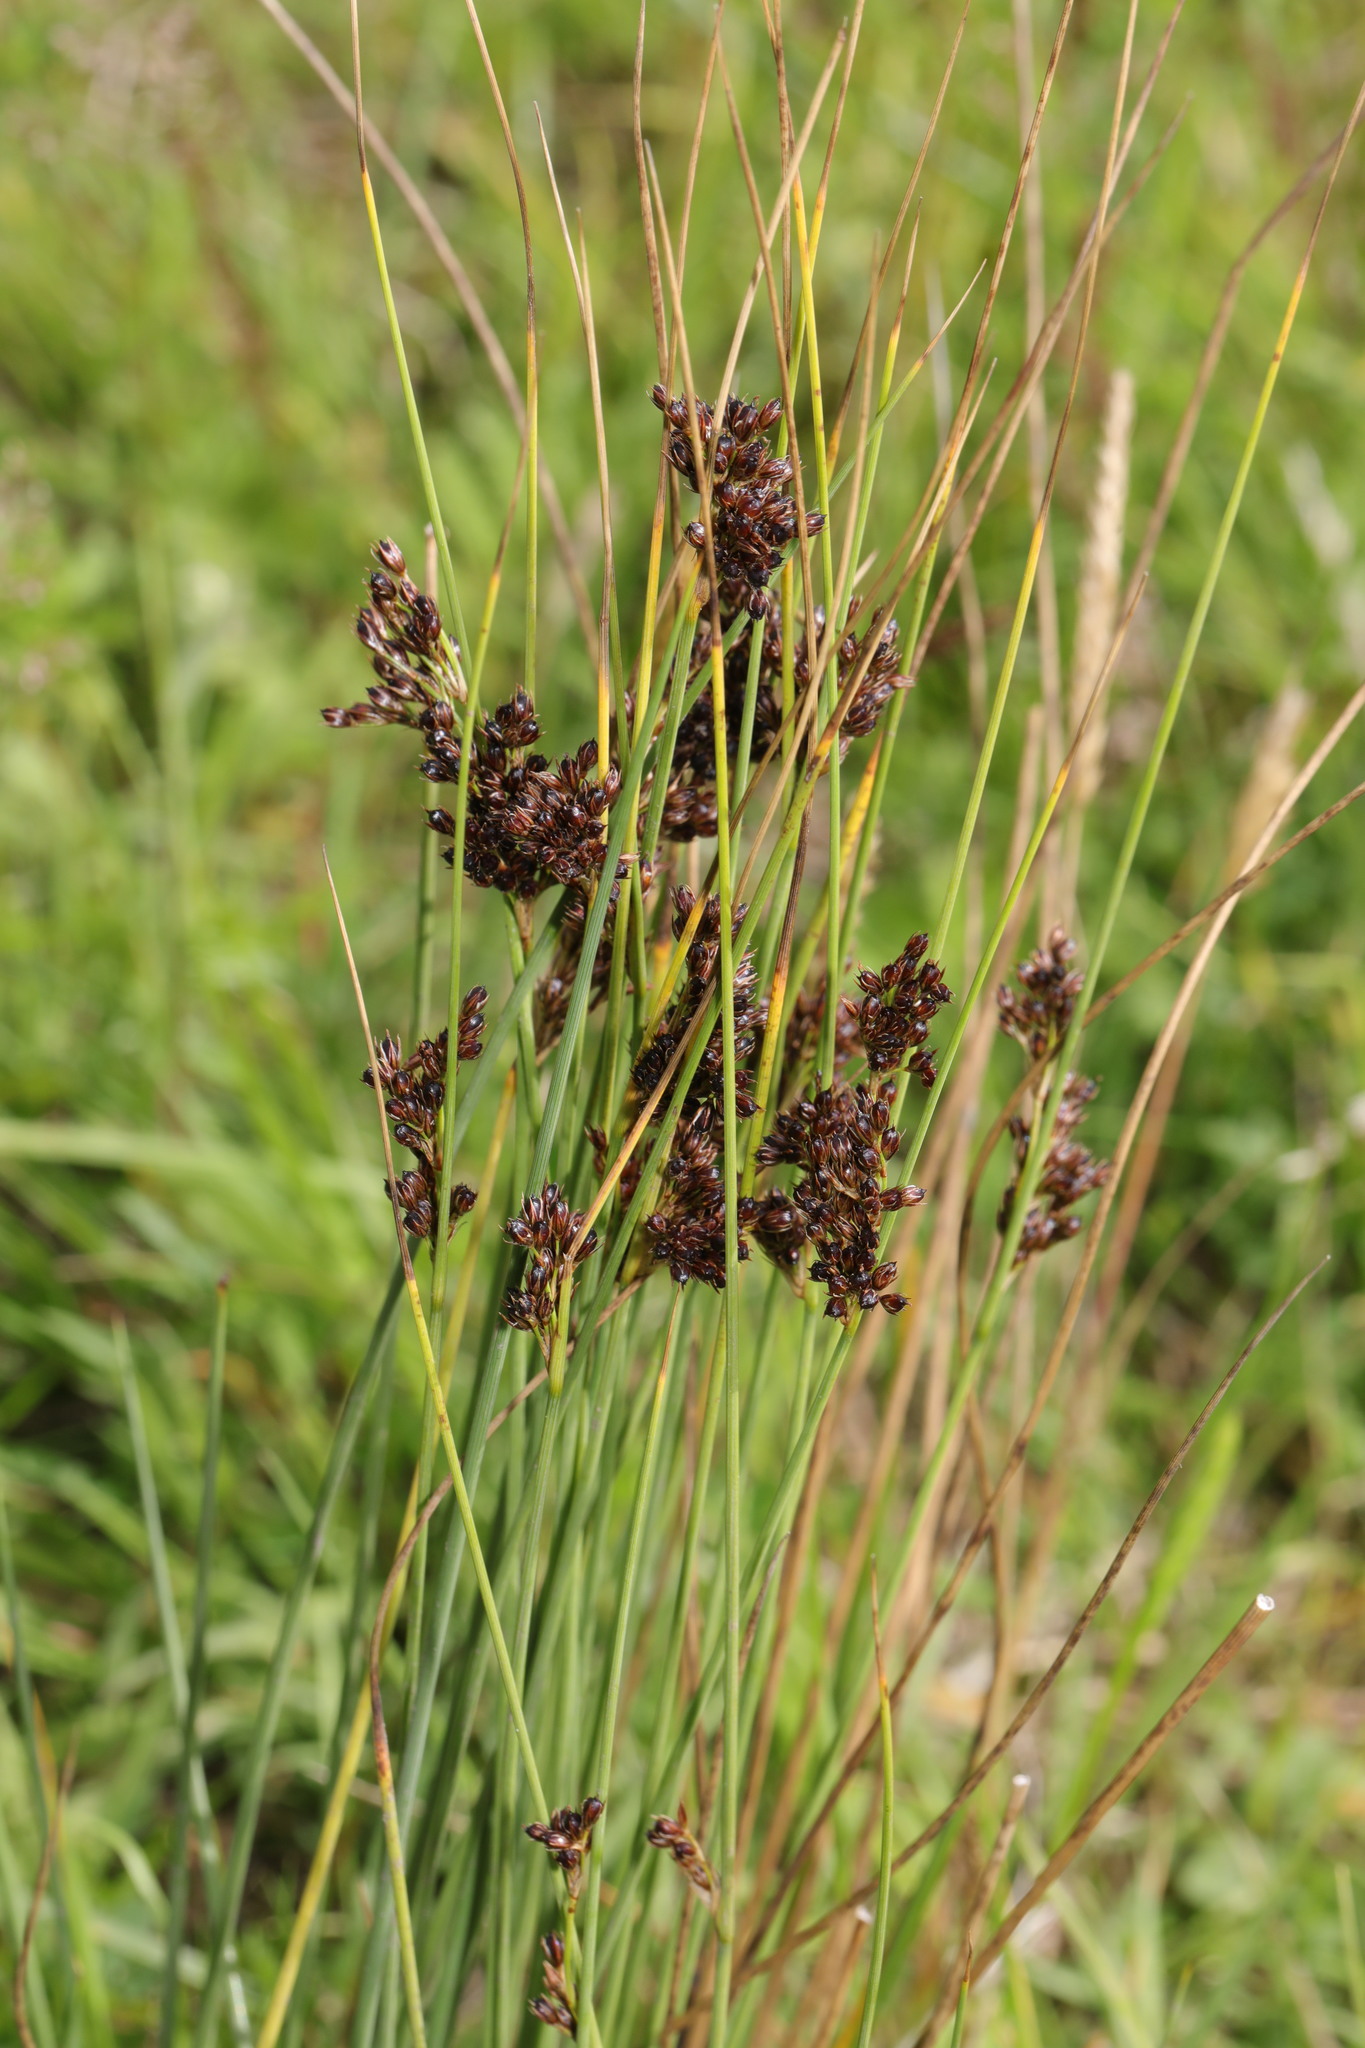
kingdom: Plantae
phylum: Tracheophyta
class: Liliopsida
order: Poales
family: Juncaceae
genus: Juncus
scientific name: Juncus inflexus
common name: Hard rush
